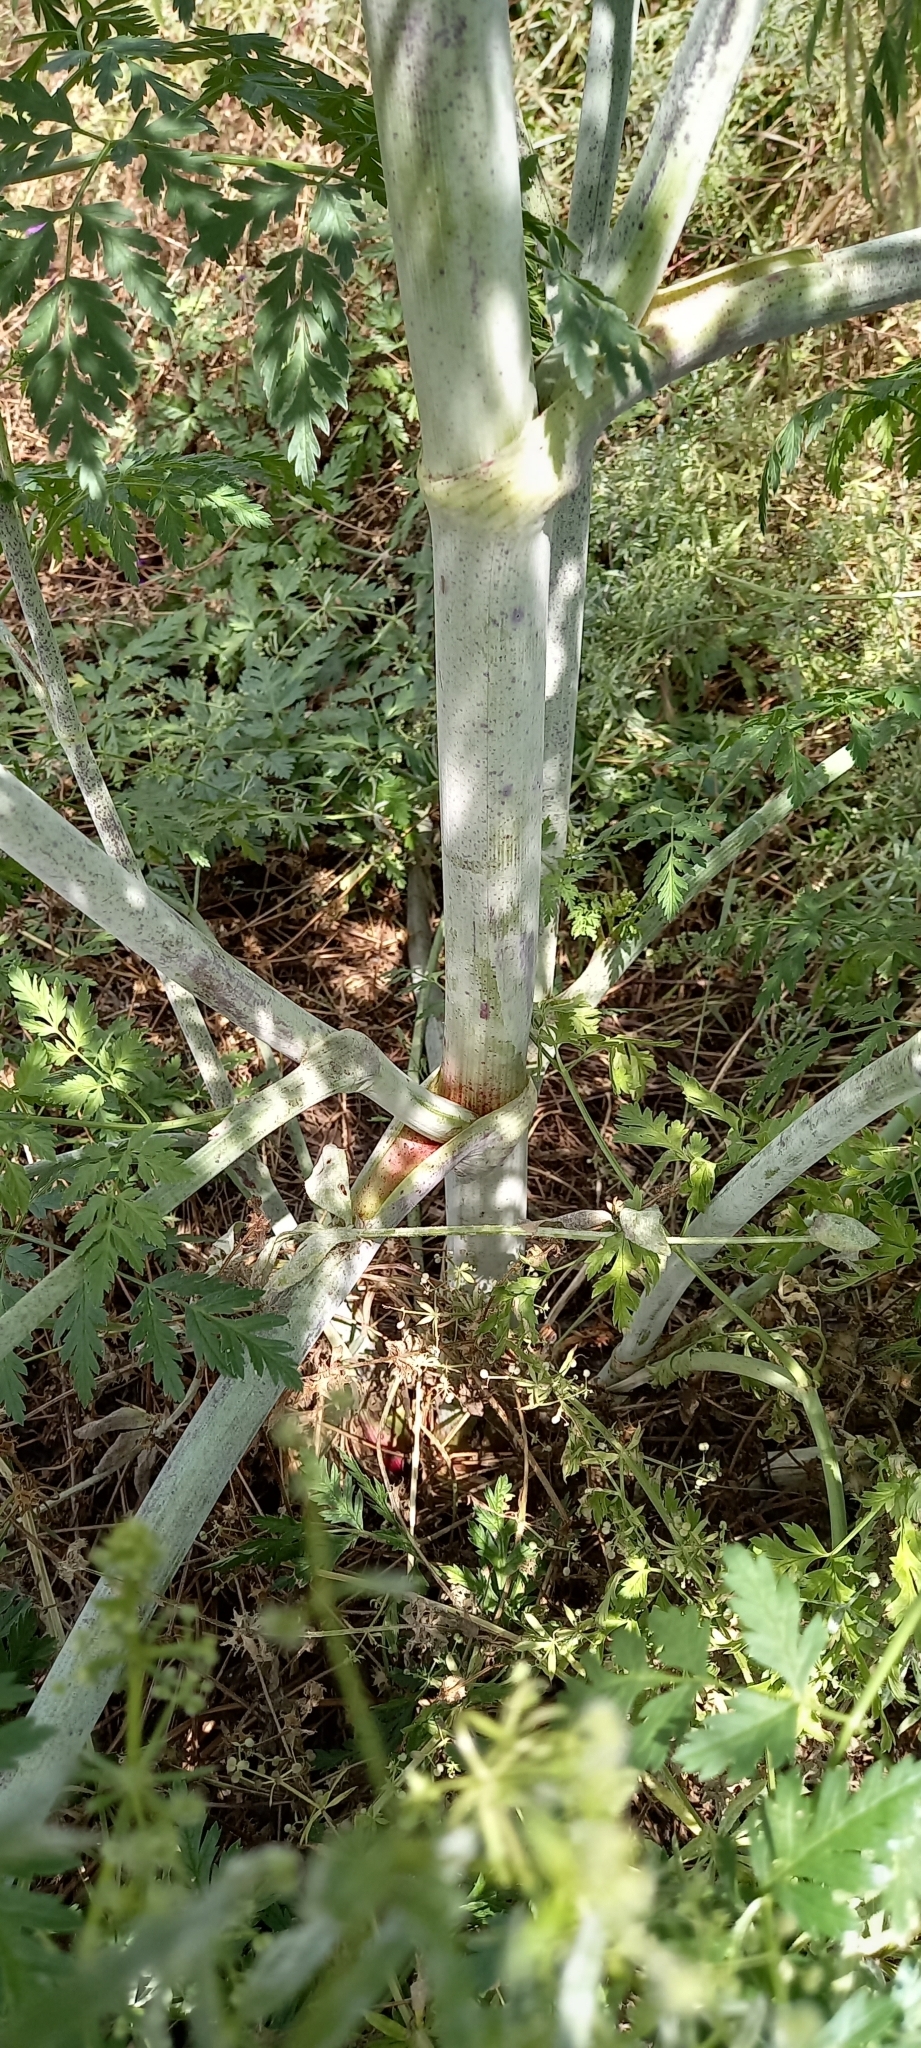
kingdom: Plantae
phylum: Tracheophyta
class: Magnoliopsida
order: Apiales
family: Apiaceae
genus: Conium
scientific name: Conium maculatum
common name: Hemlock
